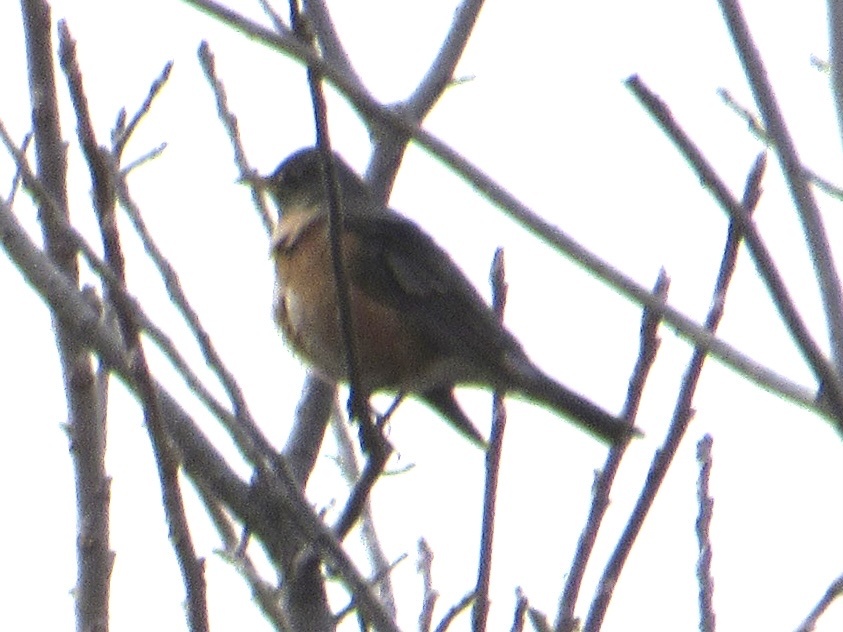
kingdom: Animalia
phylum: Chordata
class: Aves
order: Passeriformes
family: Turdidae
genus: Turdus
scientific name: Turdus migratorius
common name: American robin
